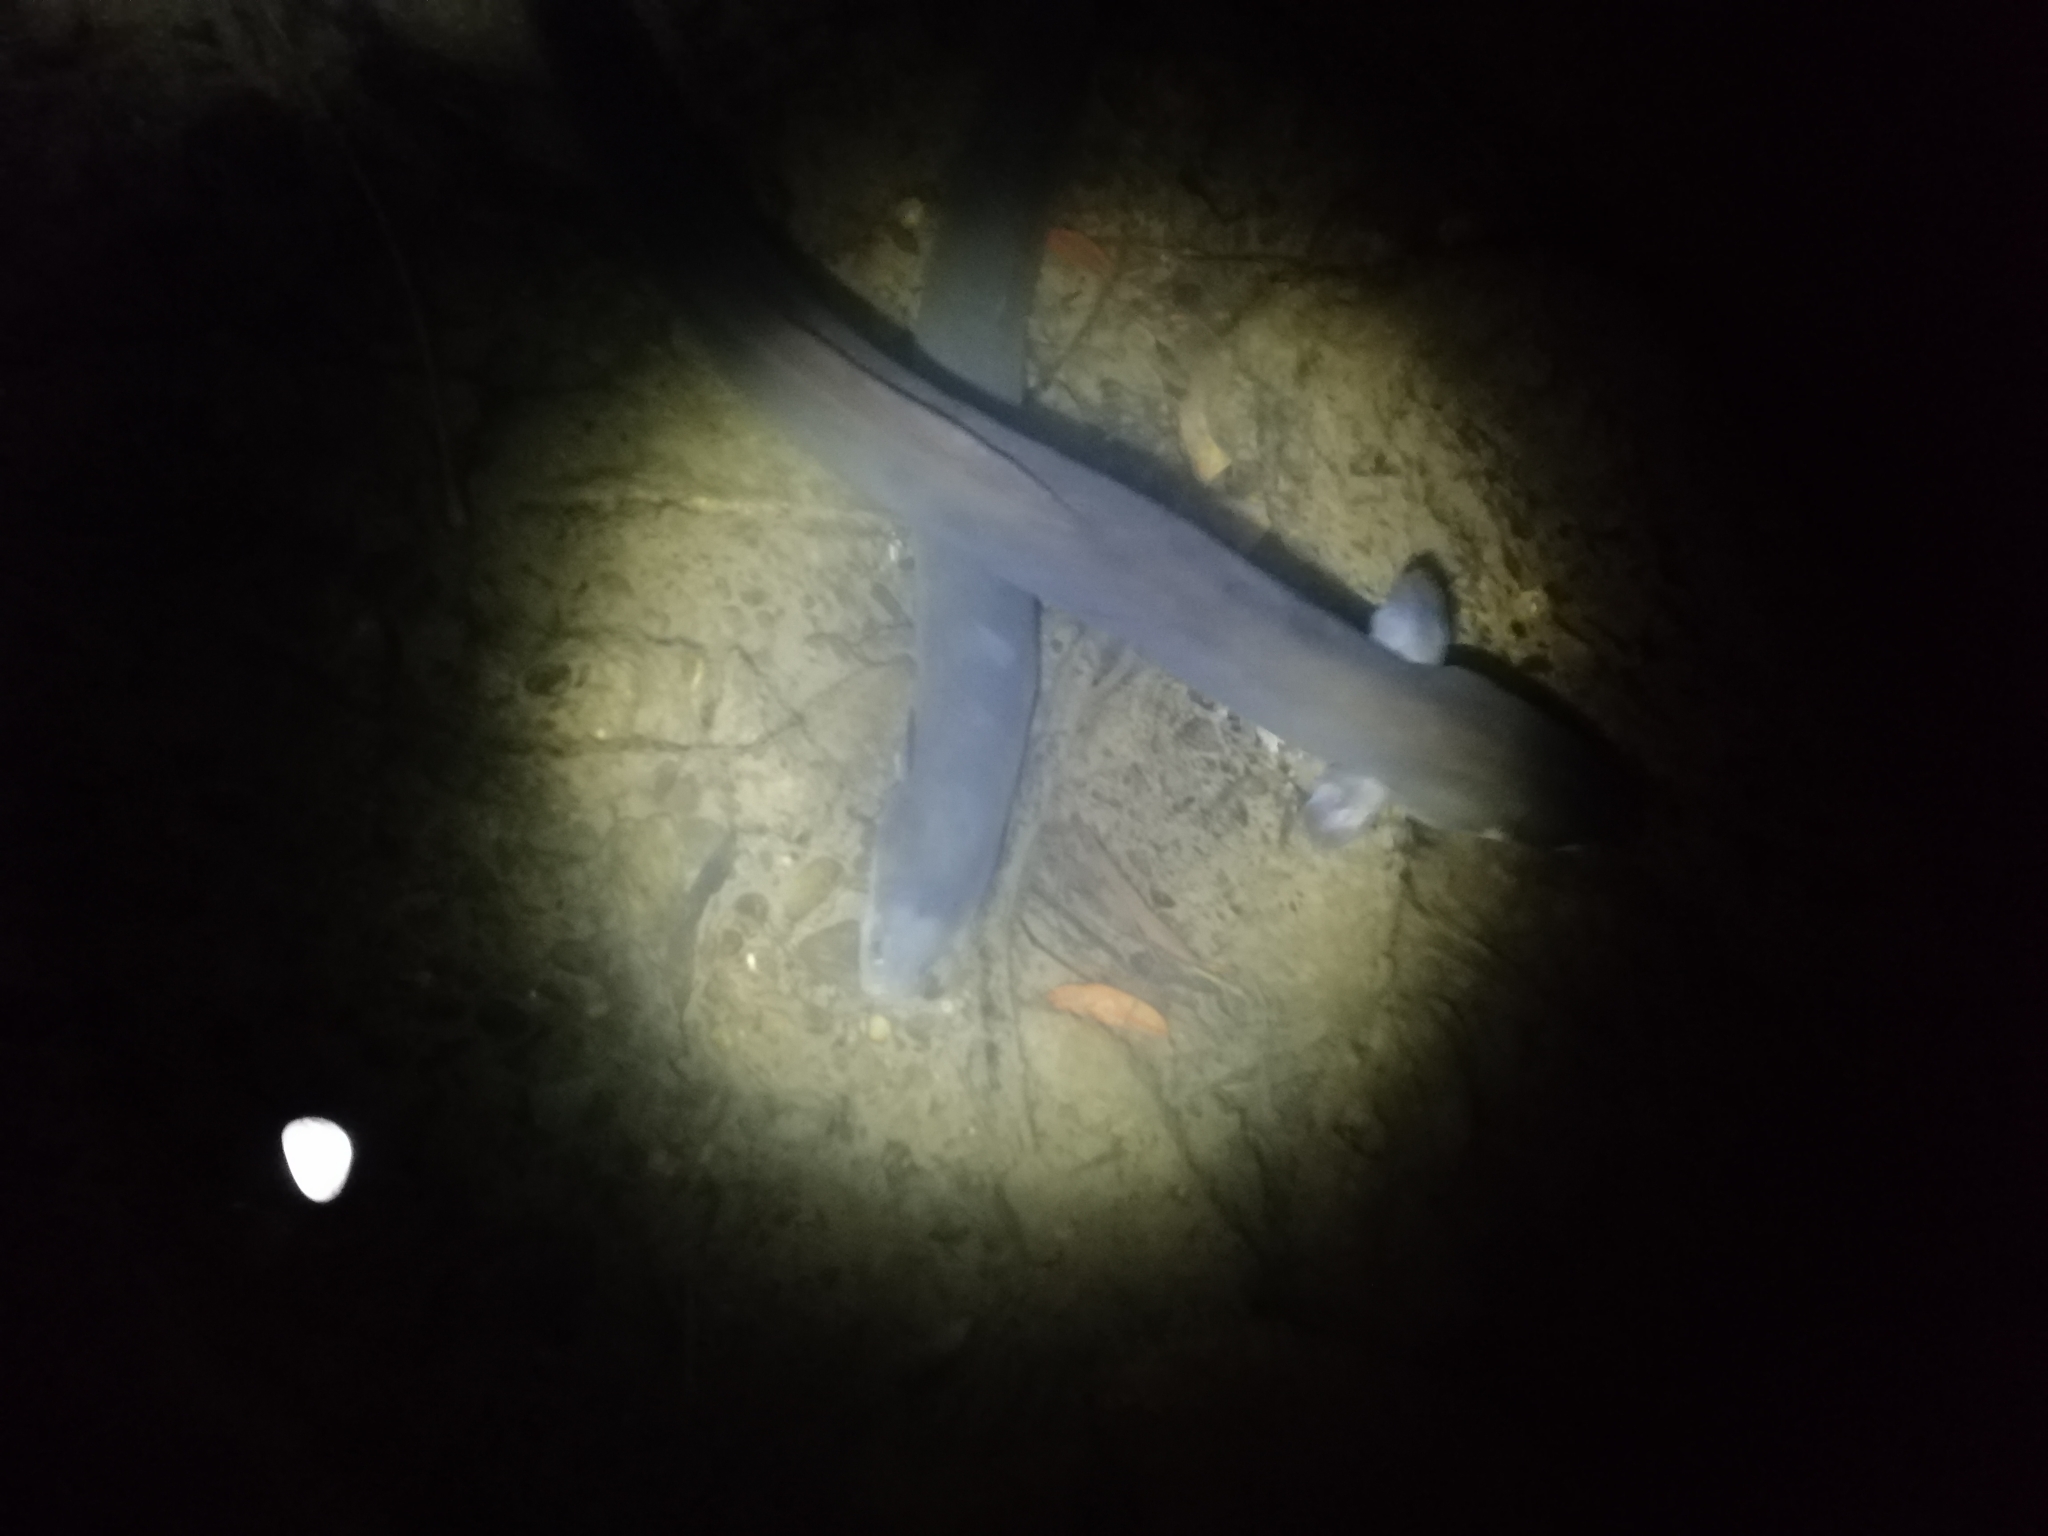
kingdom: Animalia
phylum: Chordata
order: Anguilliformes
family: Anguillidae
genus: Anguilla
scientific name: Anguilla dieffenbachii
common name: New zealand longfin eel
